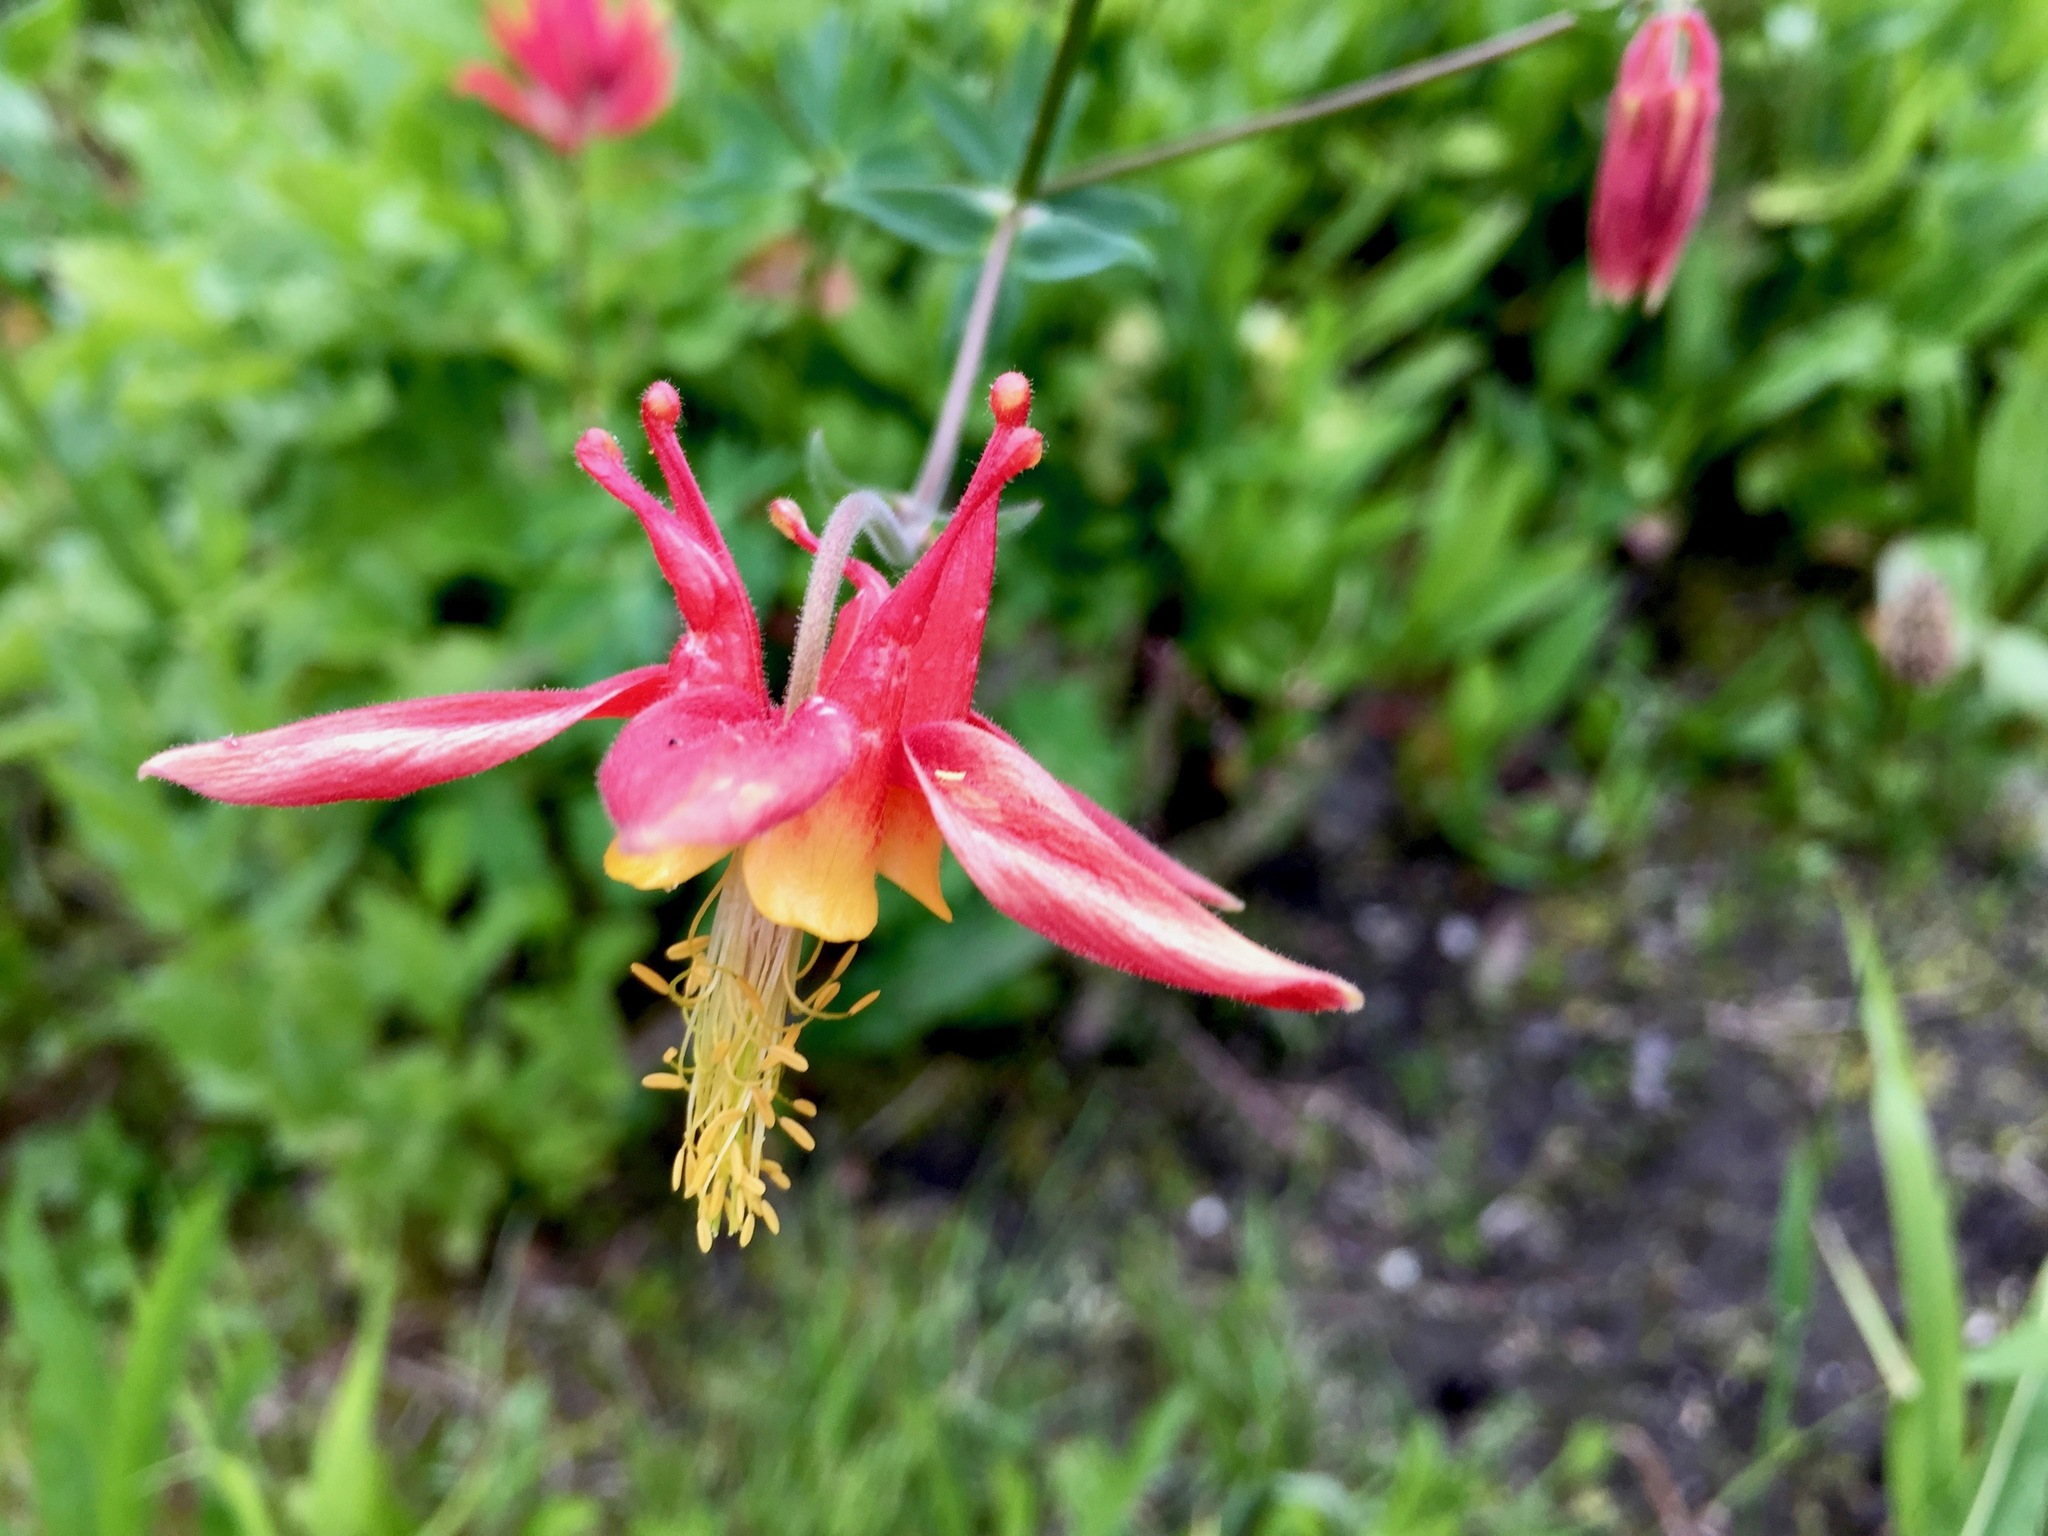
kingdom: Plantae
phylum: Tracheophyta
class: Magnoliopsida
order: Ranunculales
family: Ranunculaceae
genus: Aquilegia
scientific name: Aquilegia formosa
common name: Sitka columbine
